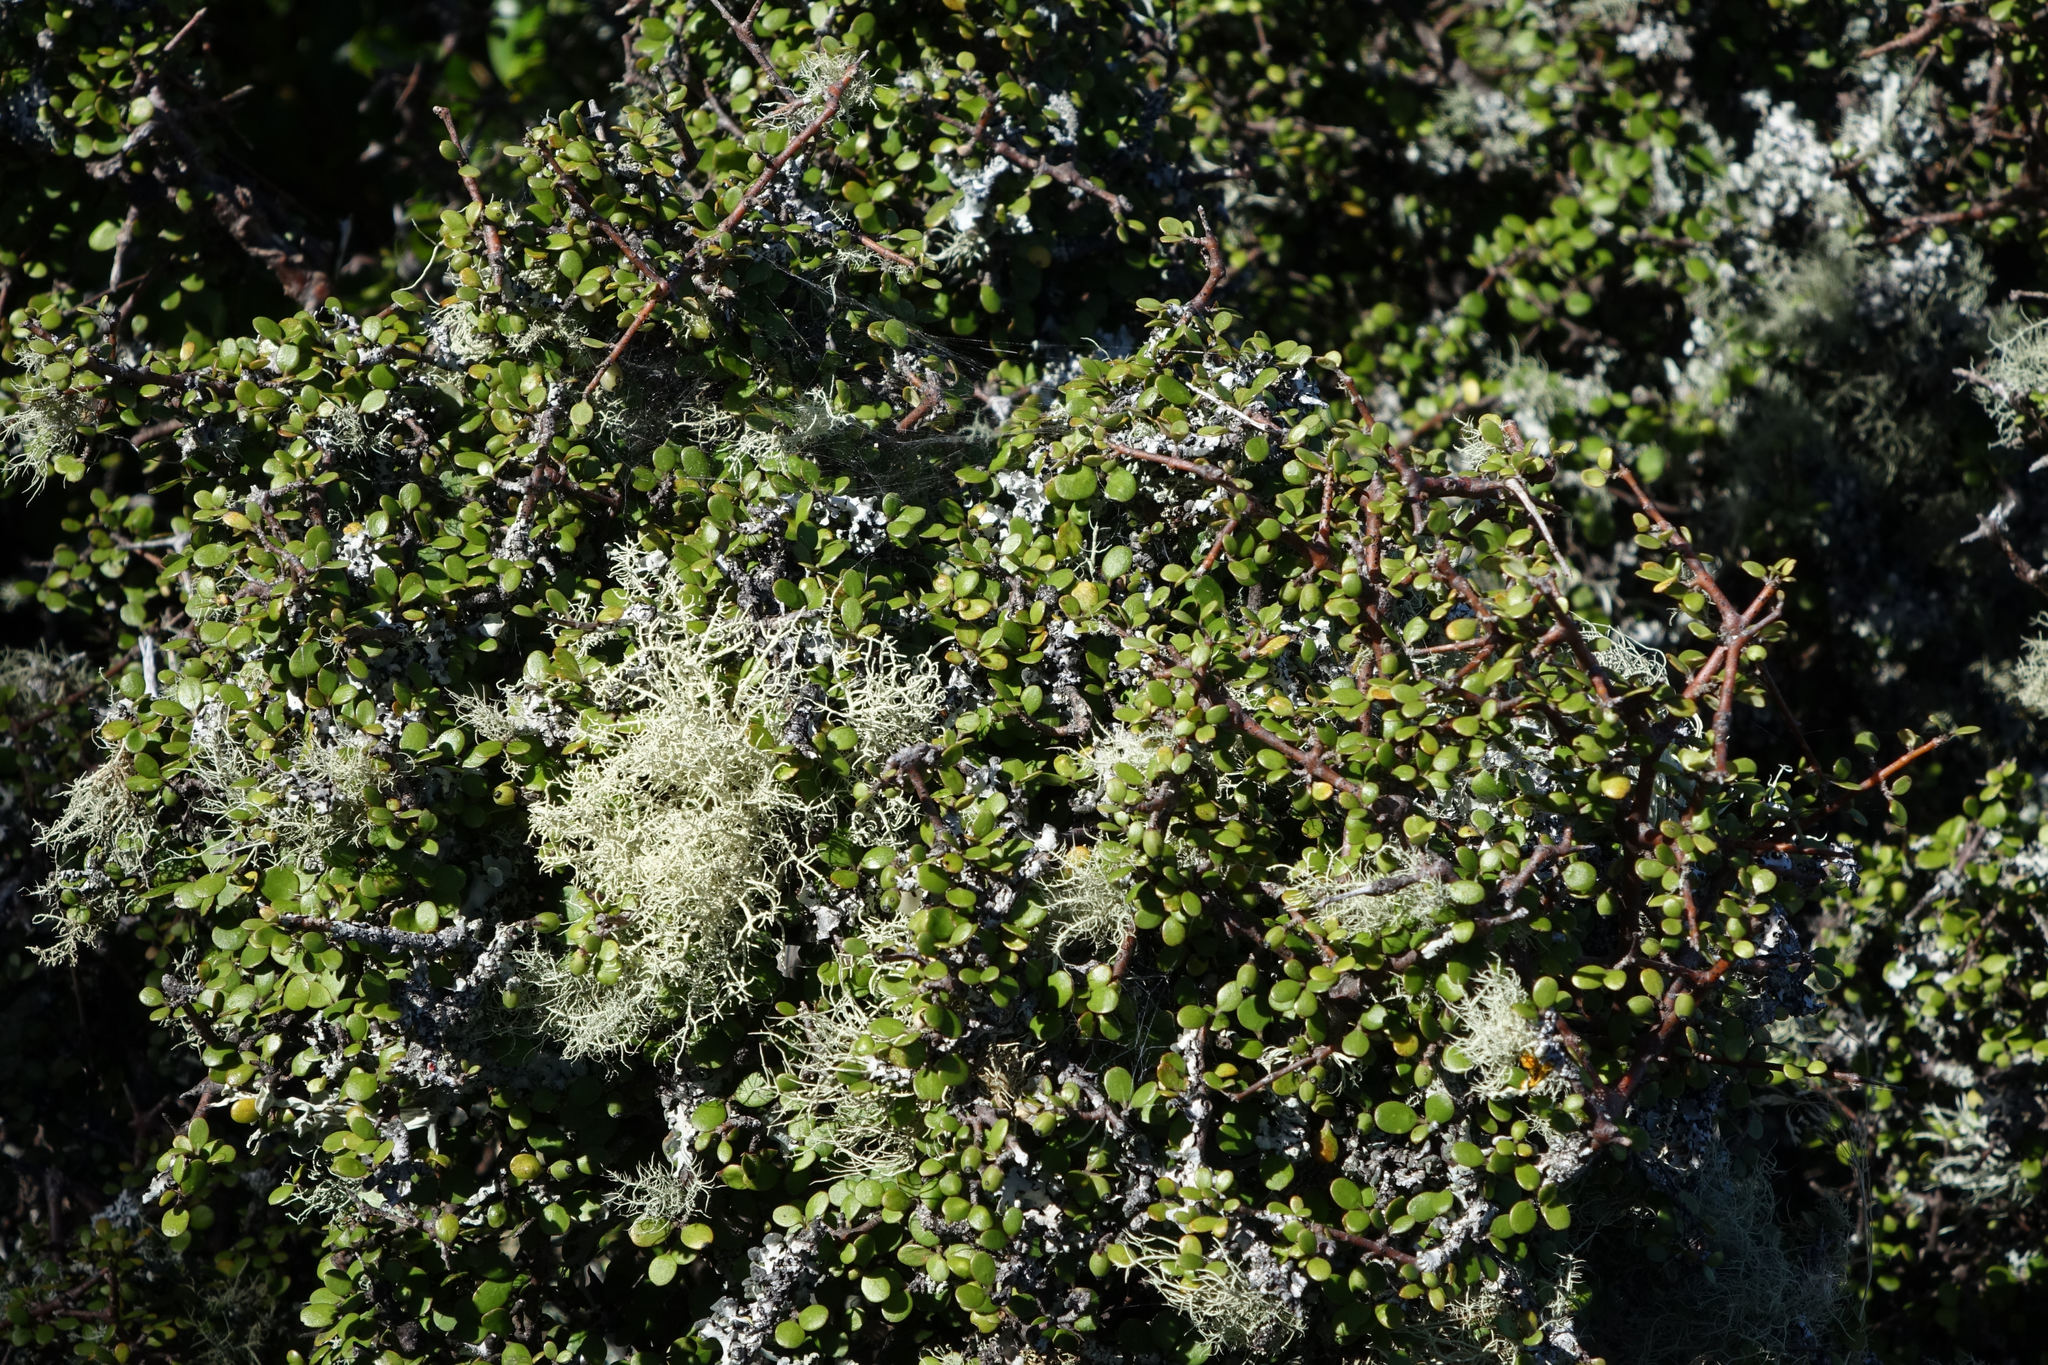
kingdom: Plantae
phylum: Tracheophyta
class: Magnoliopsida
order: Gentianales
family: Rubiaceae
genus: Coprosma
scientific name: Coprosma crassifolia
